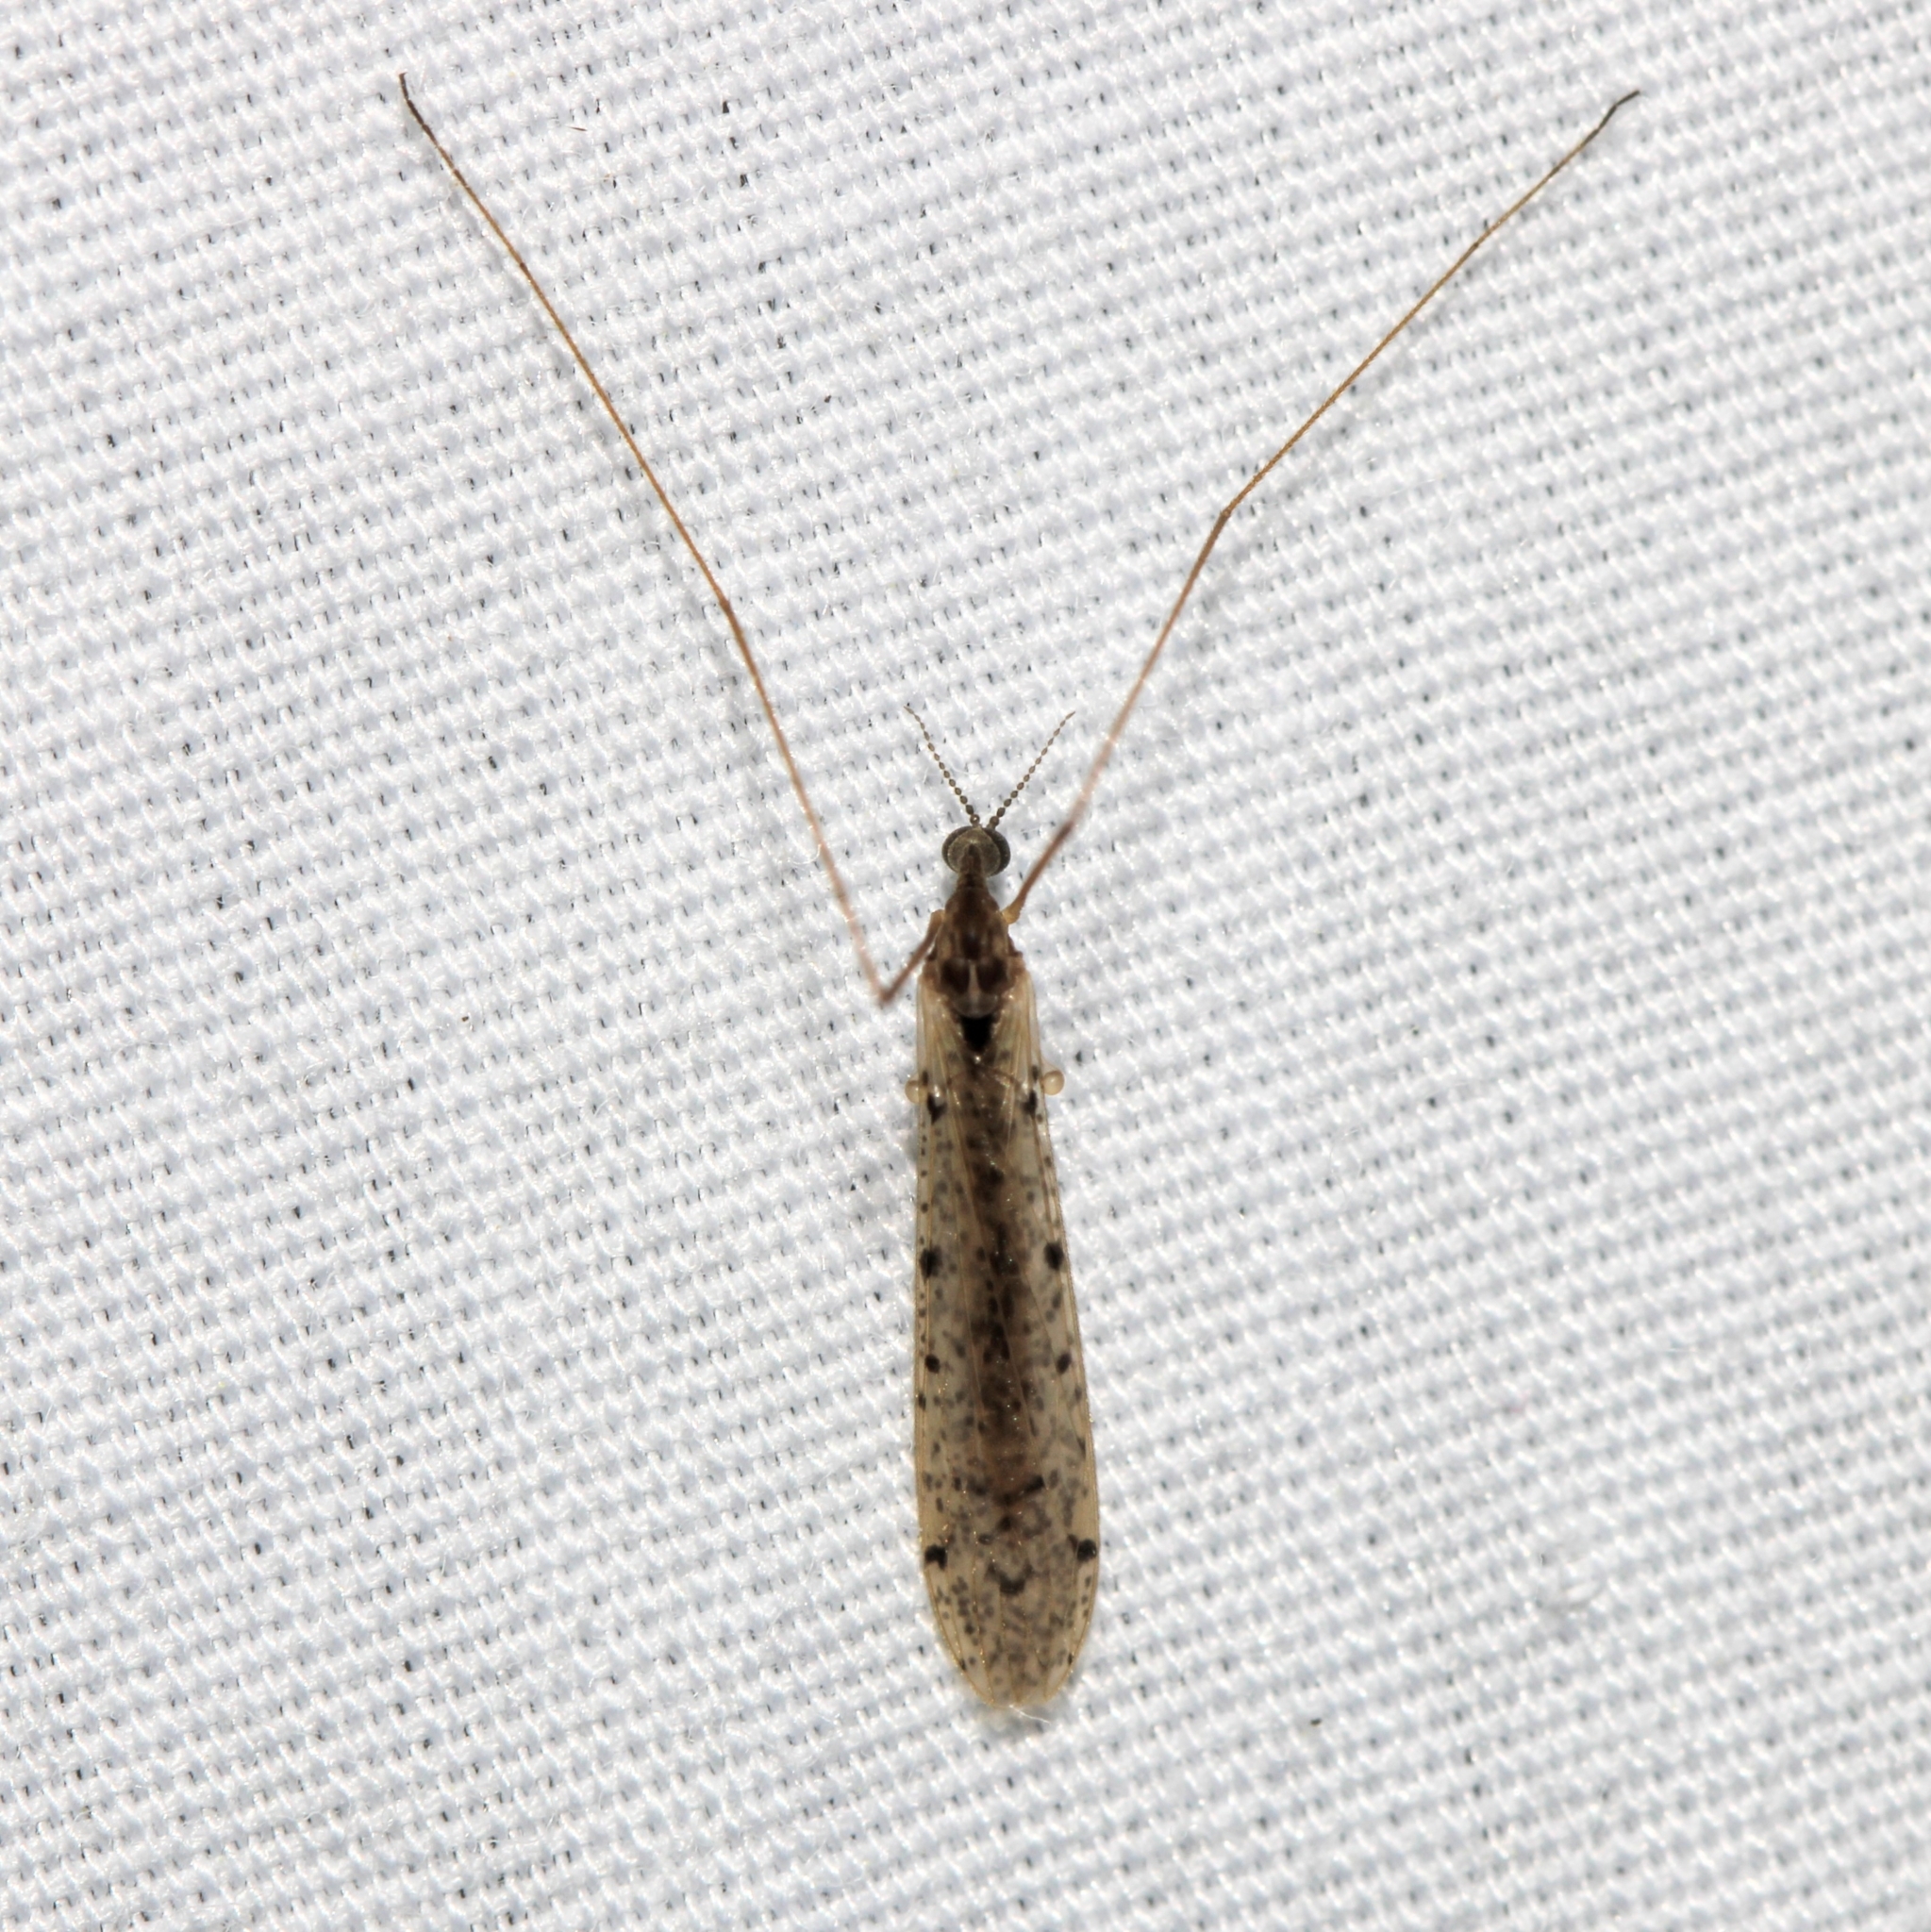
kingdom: Animalia
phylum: Arthropoda
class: Insecta
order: Diptera
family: Limoniidae
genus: Rhipidia
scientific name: Rhipidia shannoni
